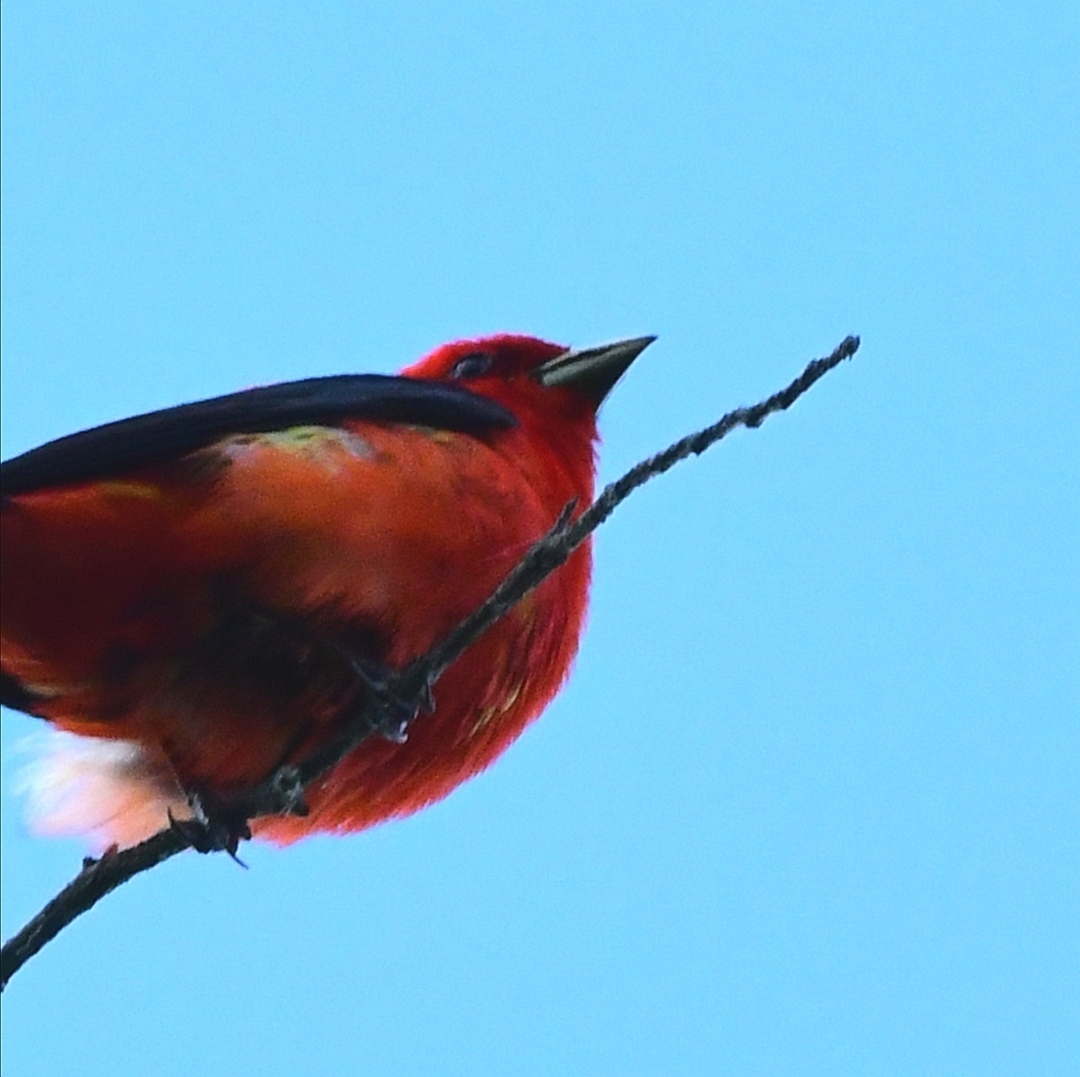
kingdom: Animalia
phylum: Chordata
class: Aves
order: Passeriformes
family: Cardinalidae
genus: Piranga
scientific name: Piranga olivacea
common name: Scarlet tanager
